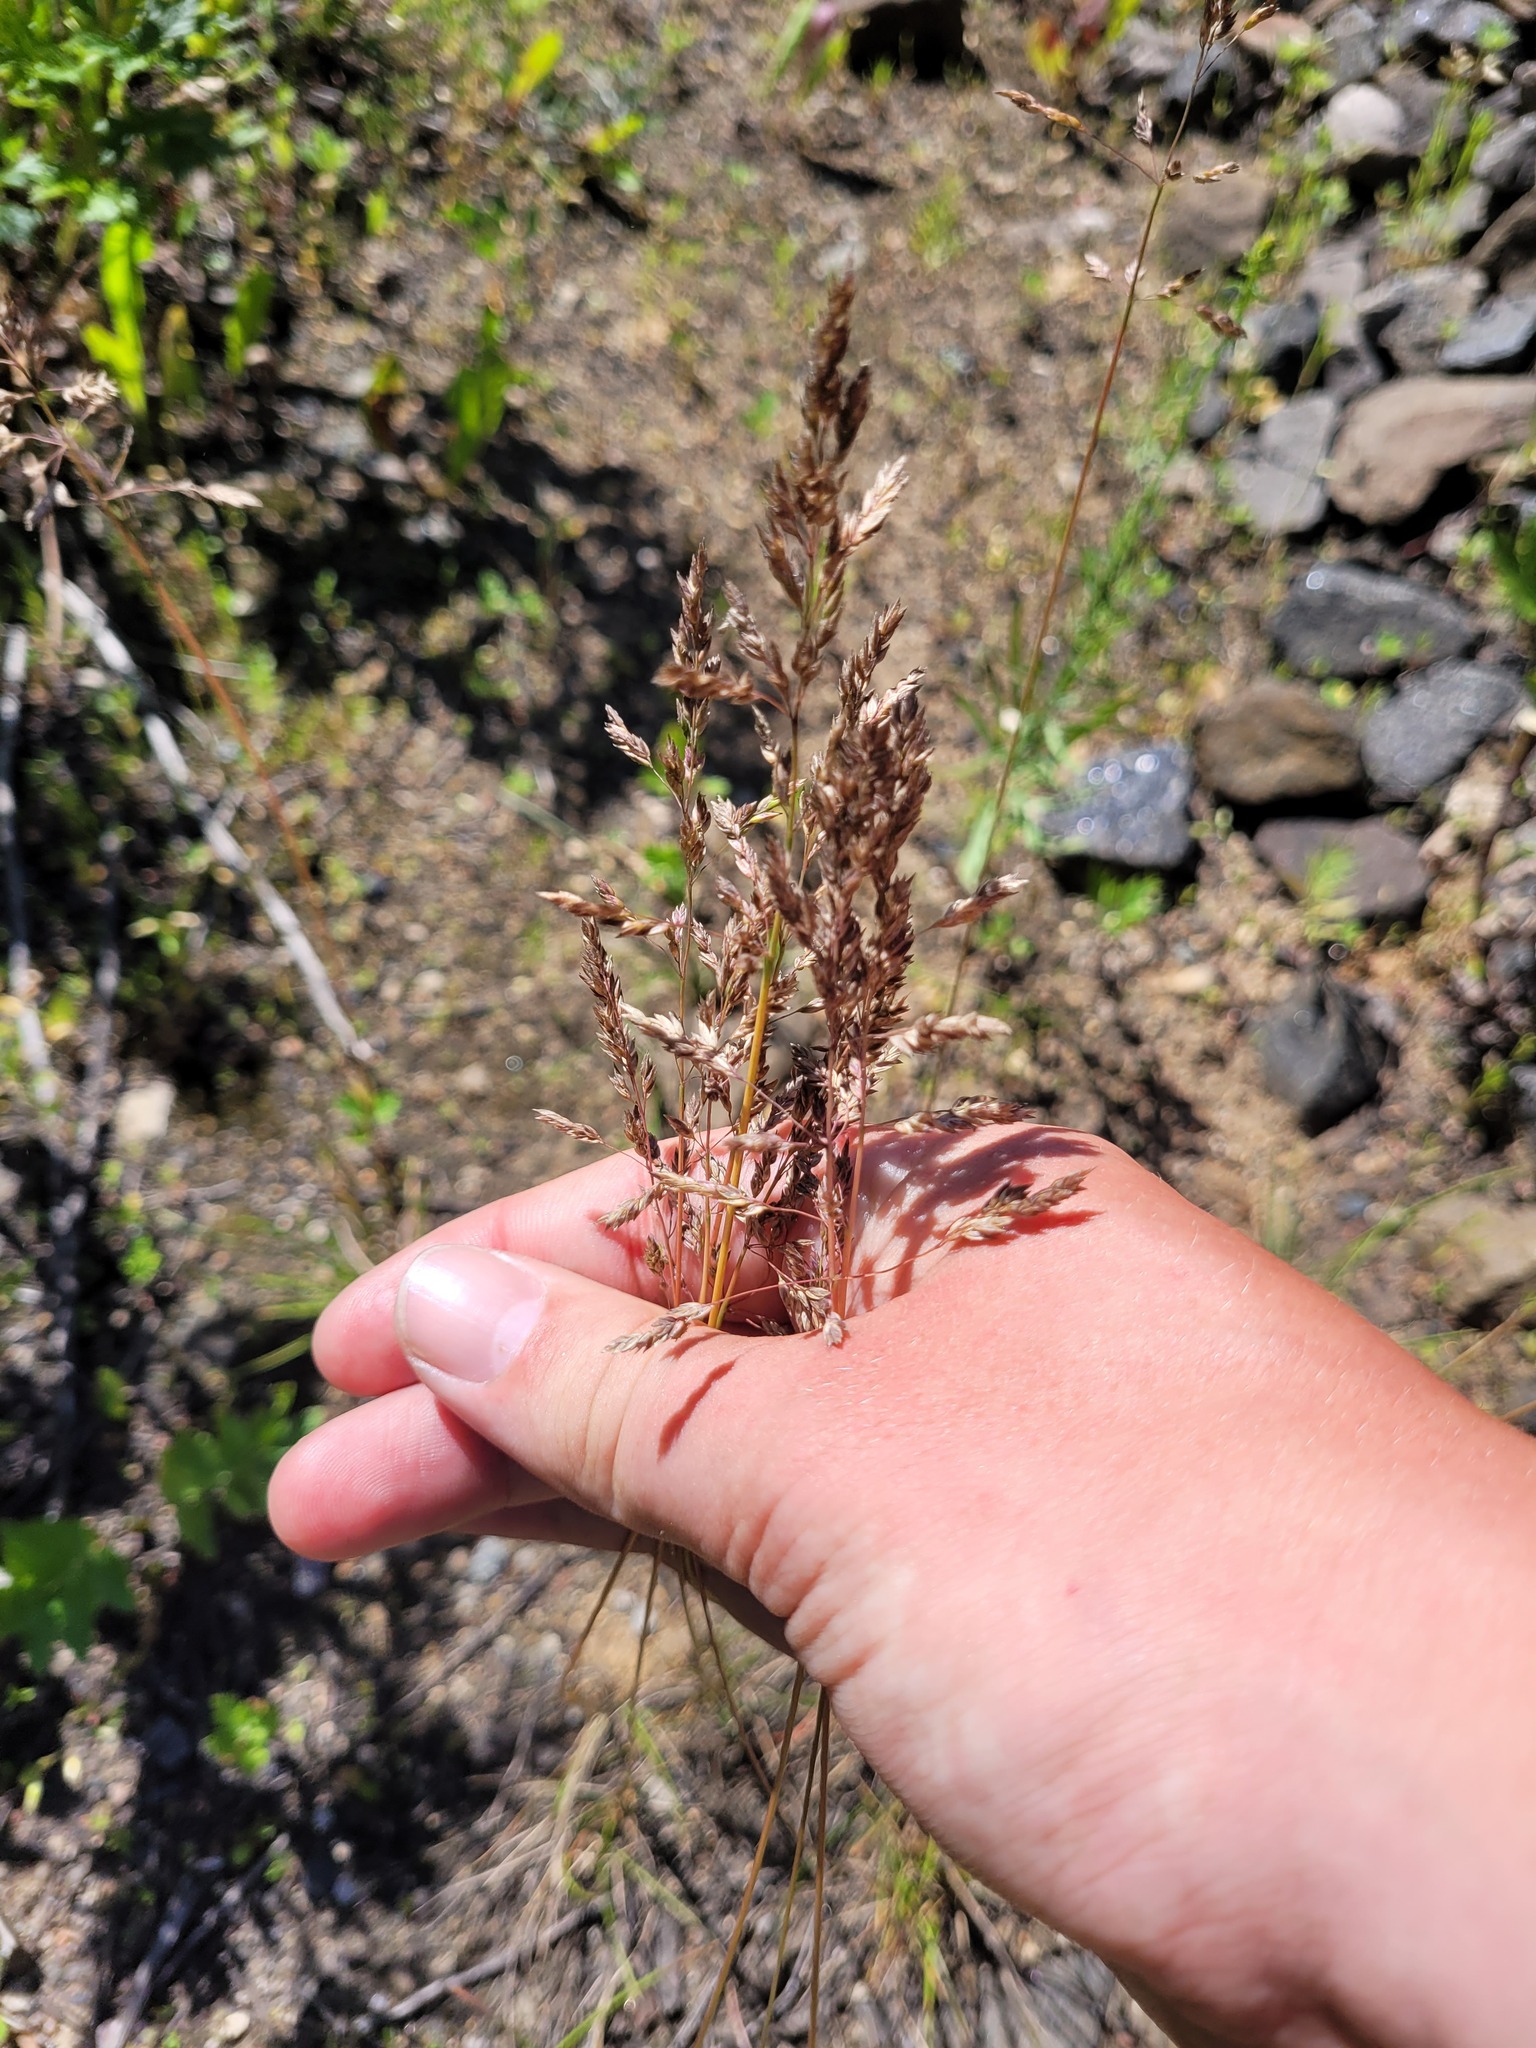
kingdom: Plantae
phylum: Tracheophyta
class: Liliopsida
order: Poales
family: Poaceae
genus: Poa
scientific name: Poa angustifolia
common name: Narrow-leaved meadow-grass
